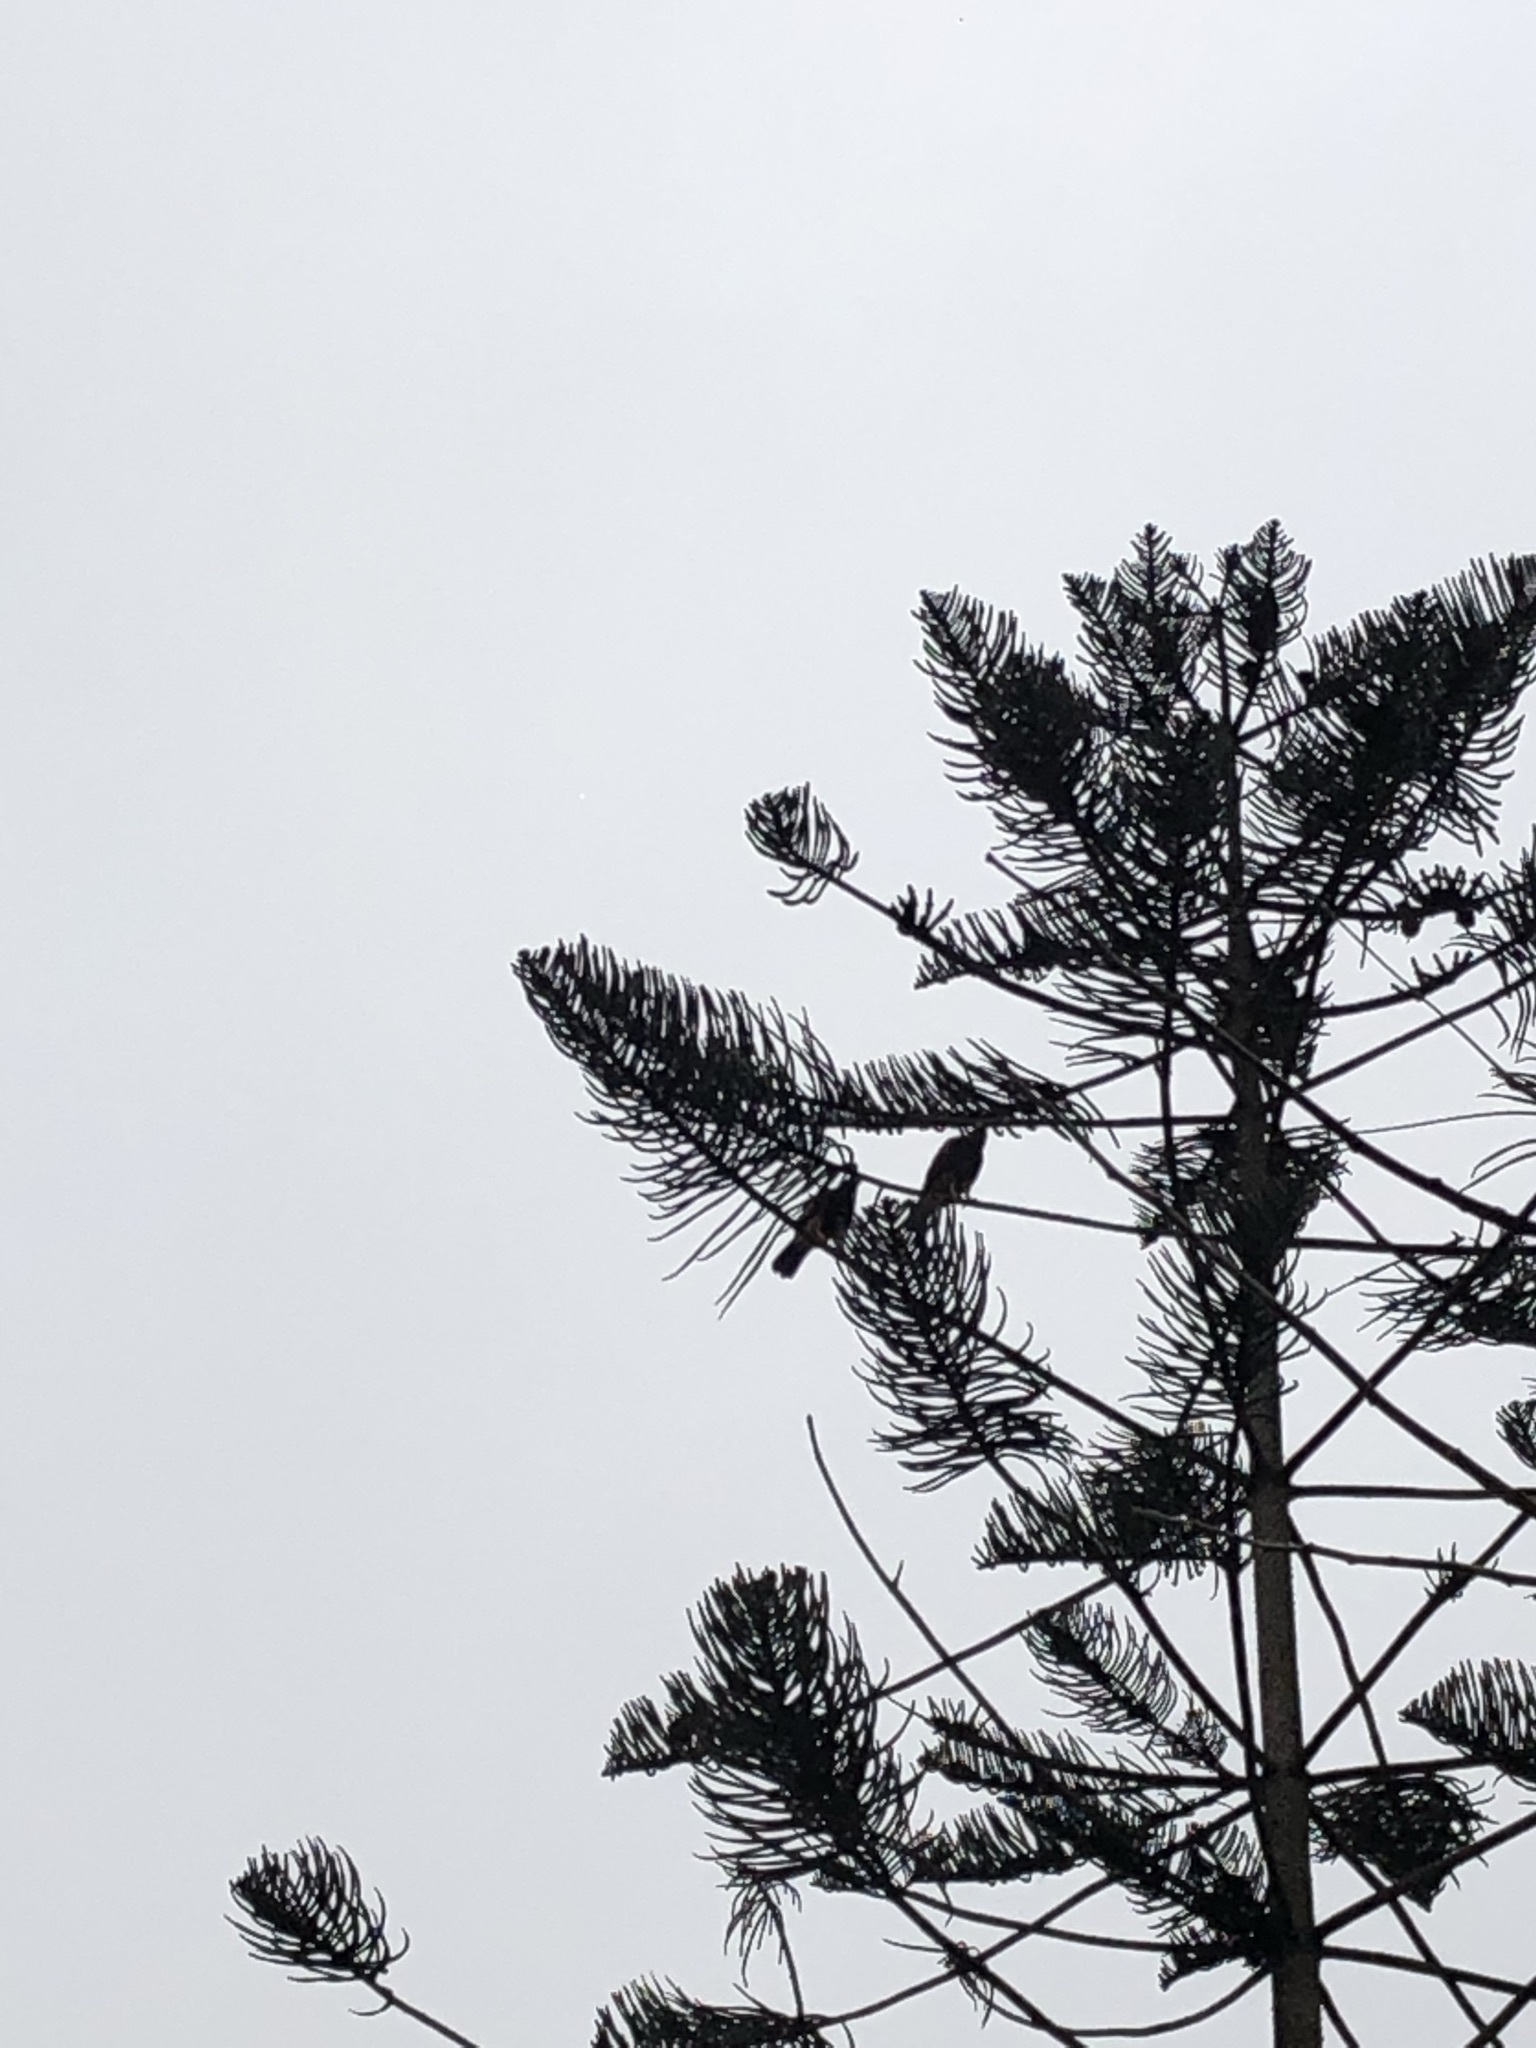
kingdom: Animalia
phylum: Chordata
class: Aves
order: Accipitriformes
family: Accipitridae
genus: Parabuteo
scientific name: Parabuteo unicinctus
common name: Harris's hawk
